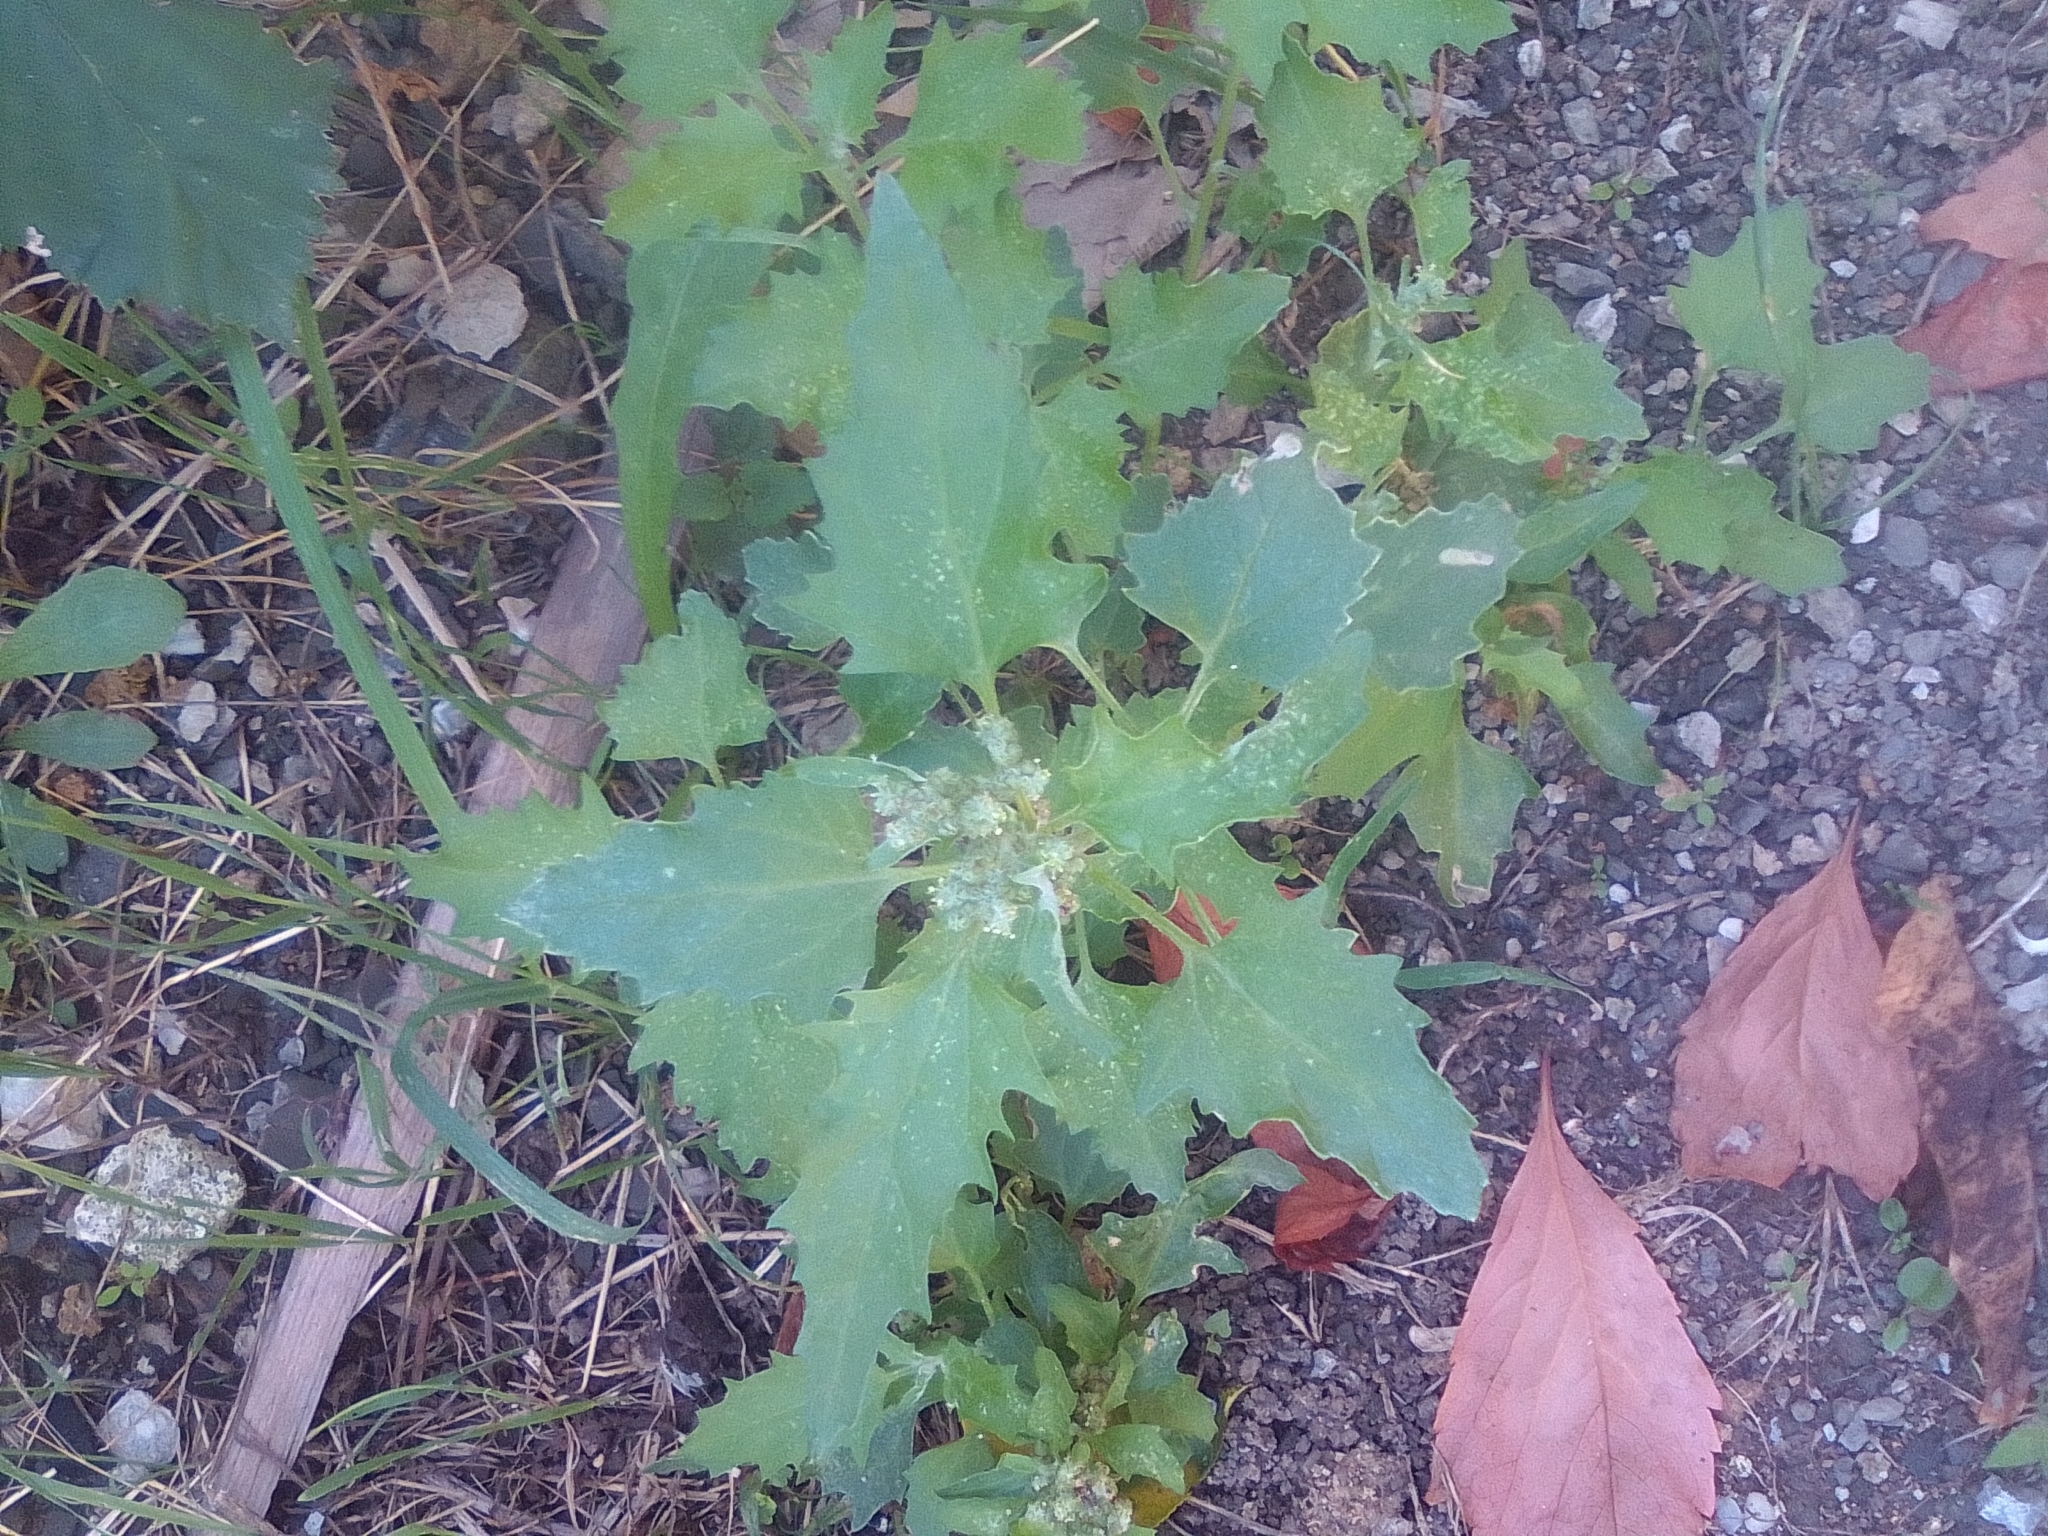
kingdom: Plantae
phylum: Tracheophyta
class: Magnoliopsida
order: Caryophyllales
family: Amaranthaceae
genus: Chenopodiastrum
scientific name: Chenopodiastrum murale
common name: Sowbane
